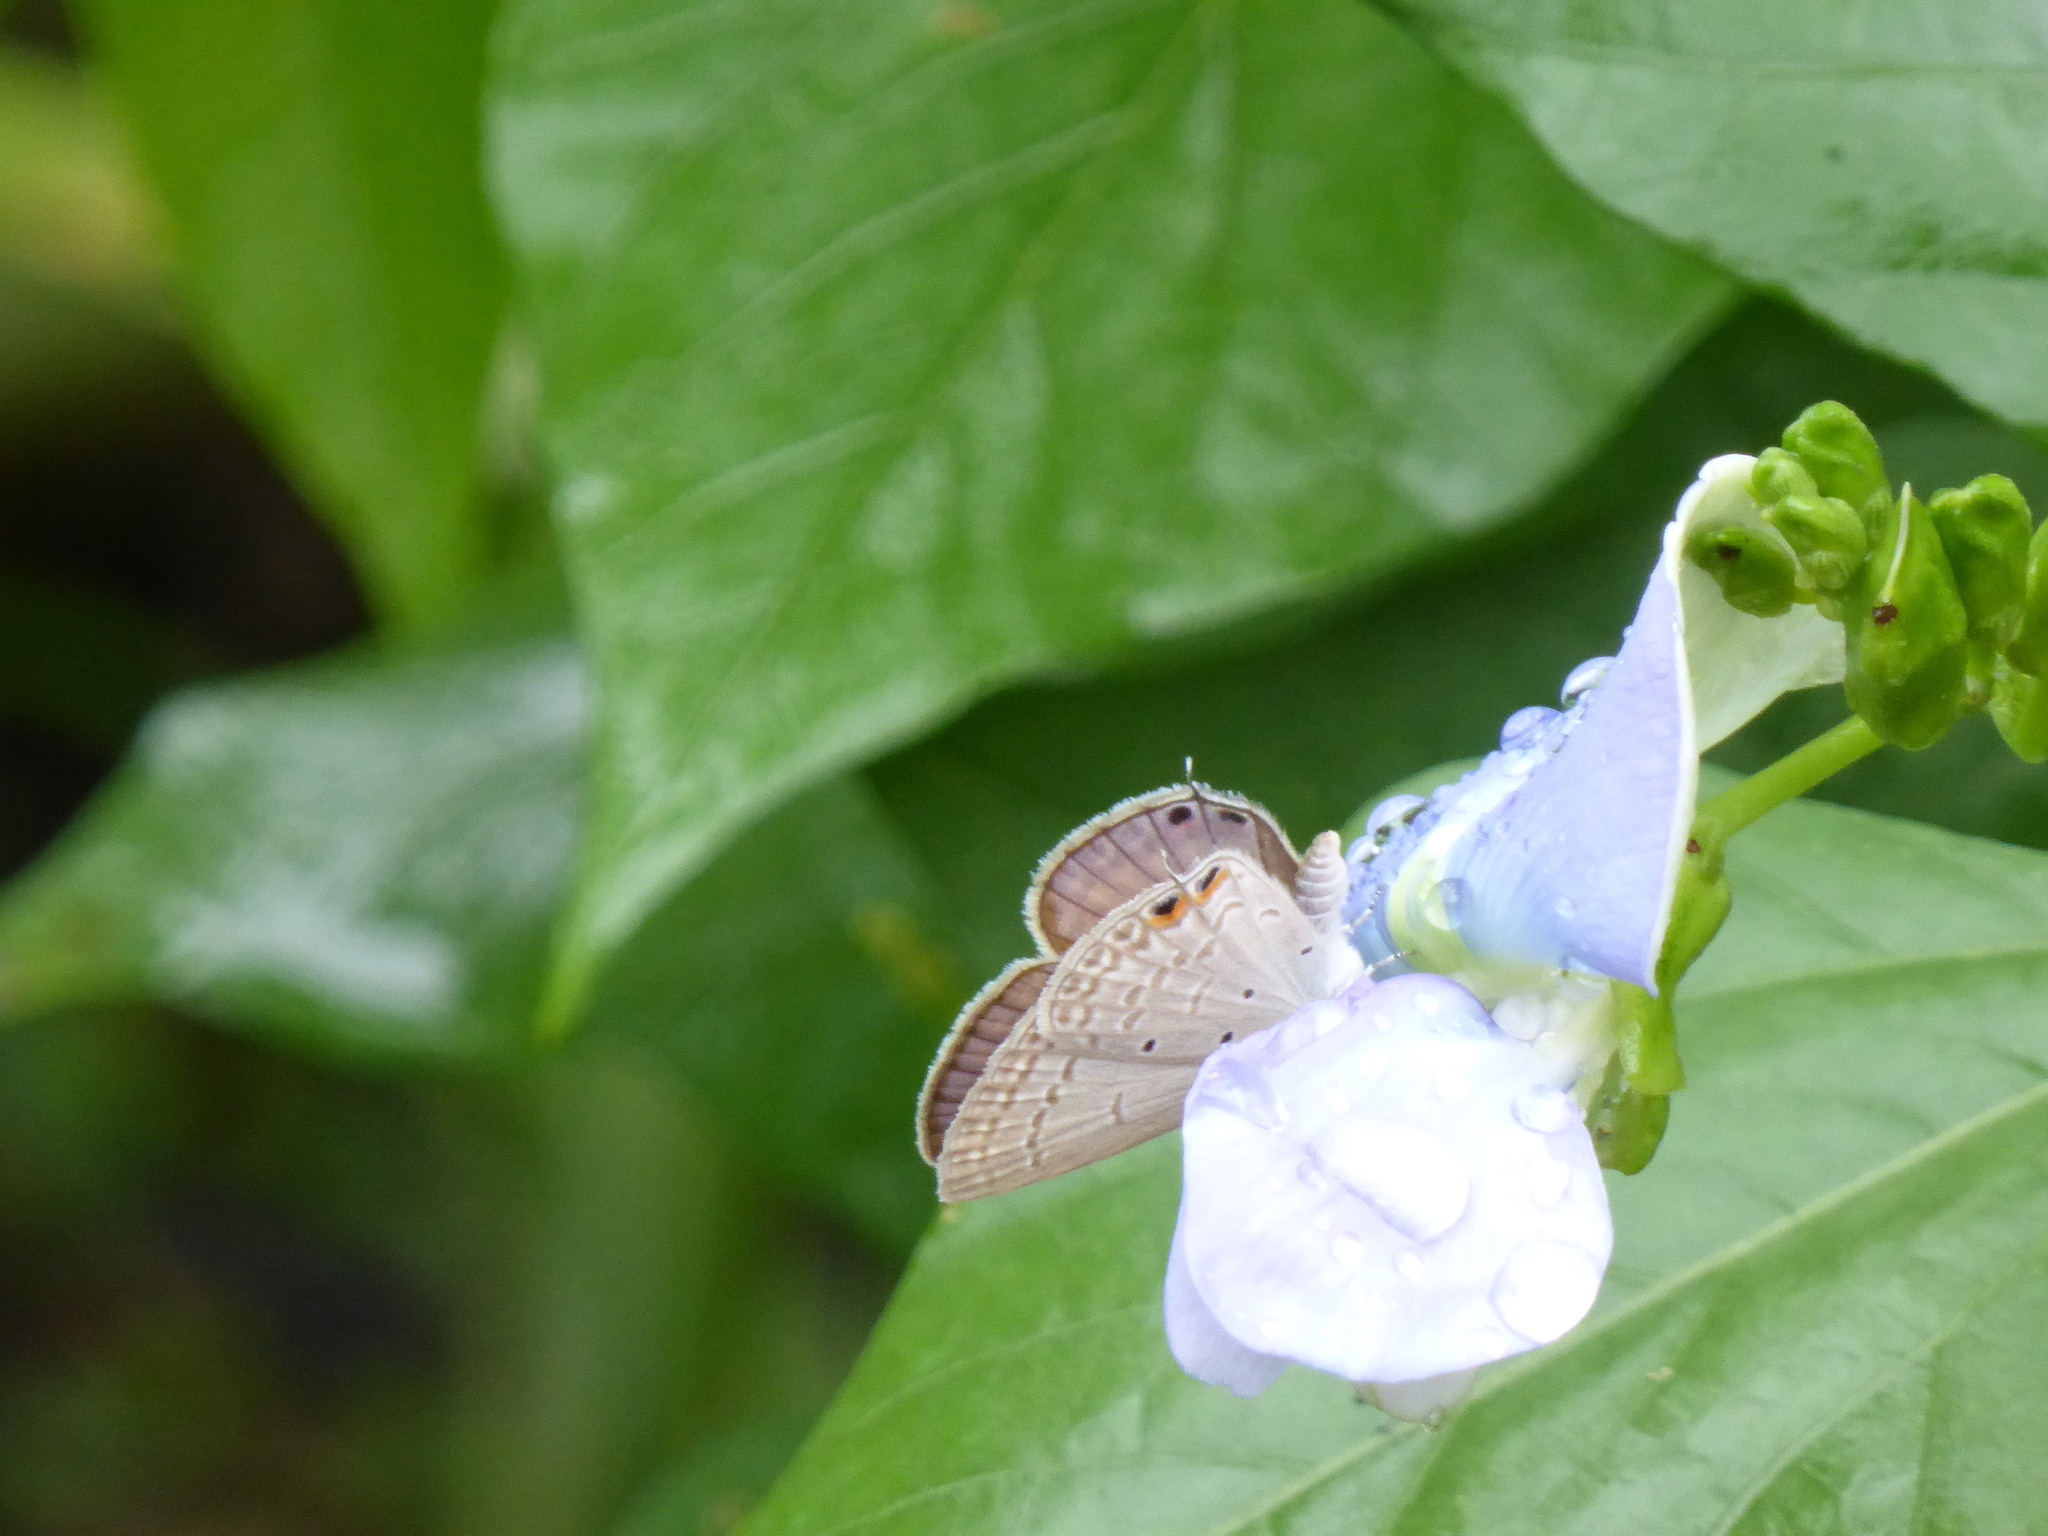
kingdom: Animalia
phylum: Arthropoda
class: Insecta
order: Lepidoptera
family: Lycaenidae
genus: Euchrysops
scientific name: Euchrysops cnejus
